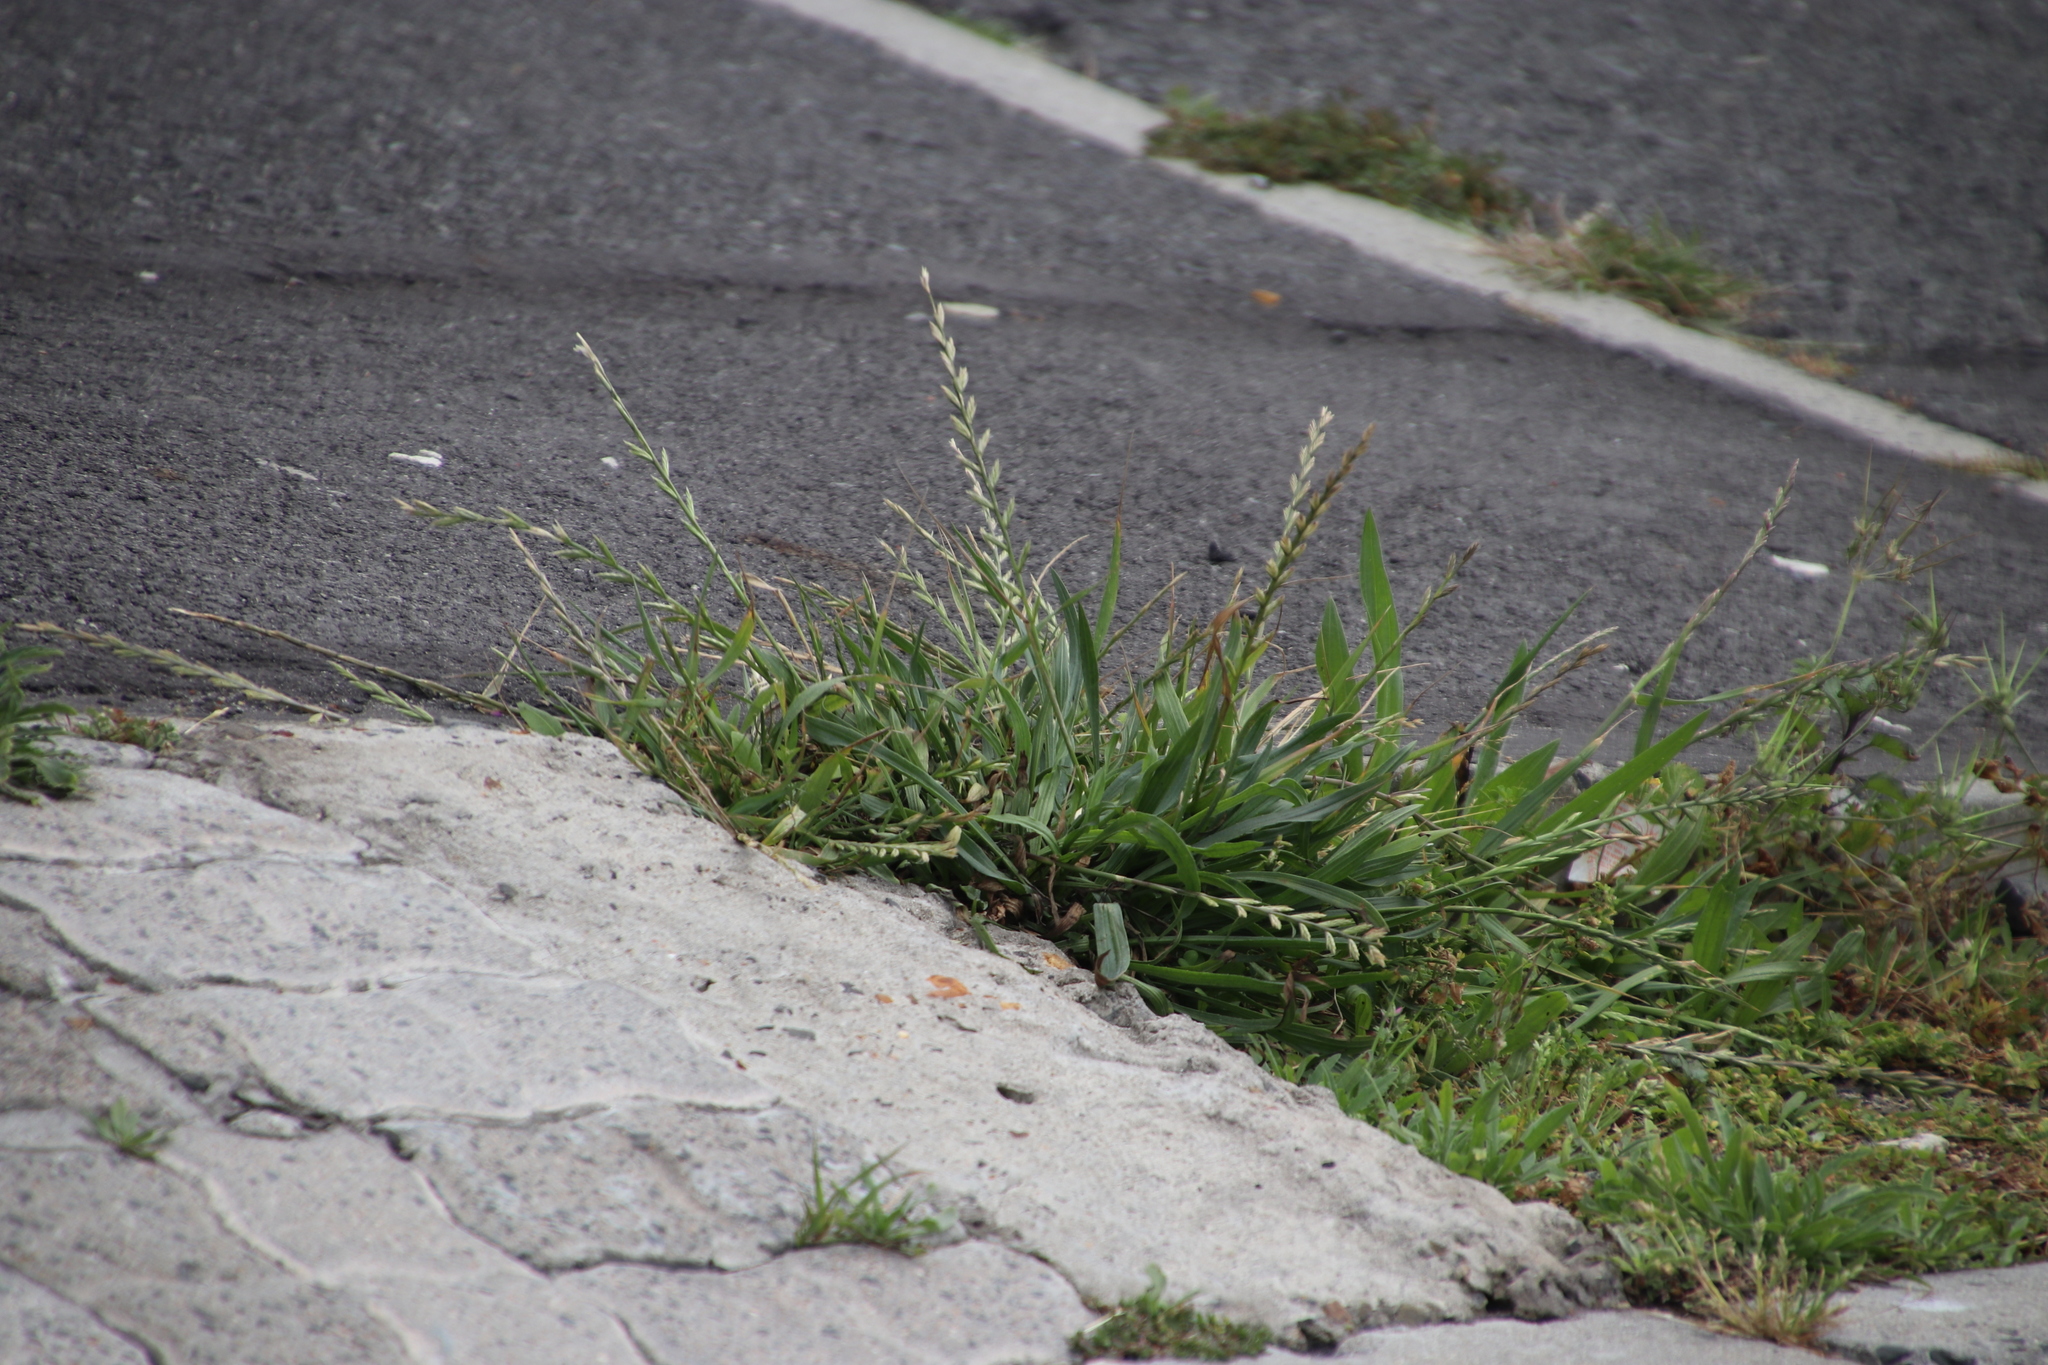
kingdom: Plantae
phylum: Tracheophyta
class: Liliopsida
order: Poales
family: Poaceae
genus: Lolium
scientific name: Lolium perenne
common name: Perennial ryegrass
